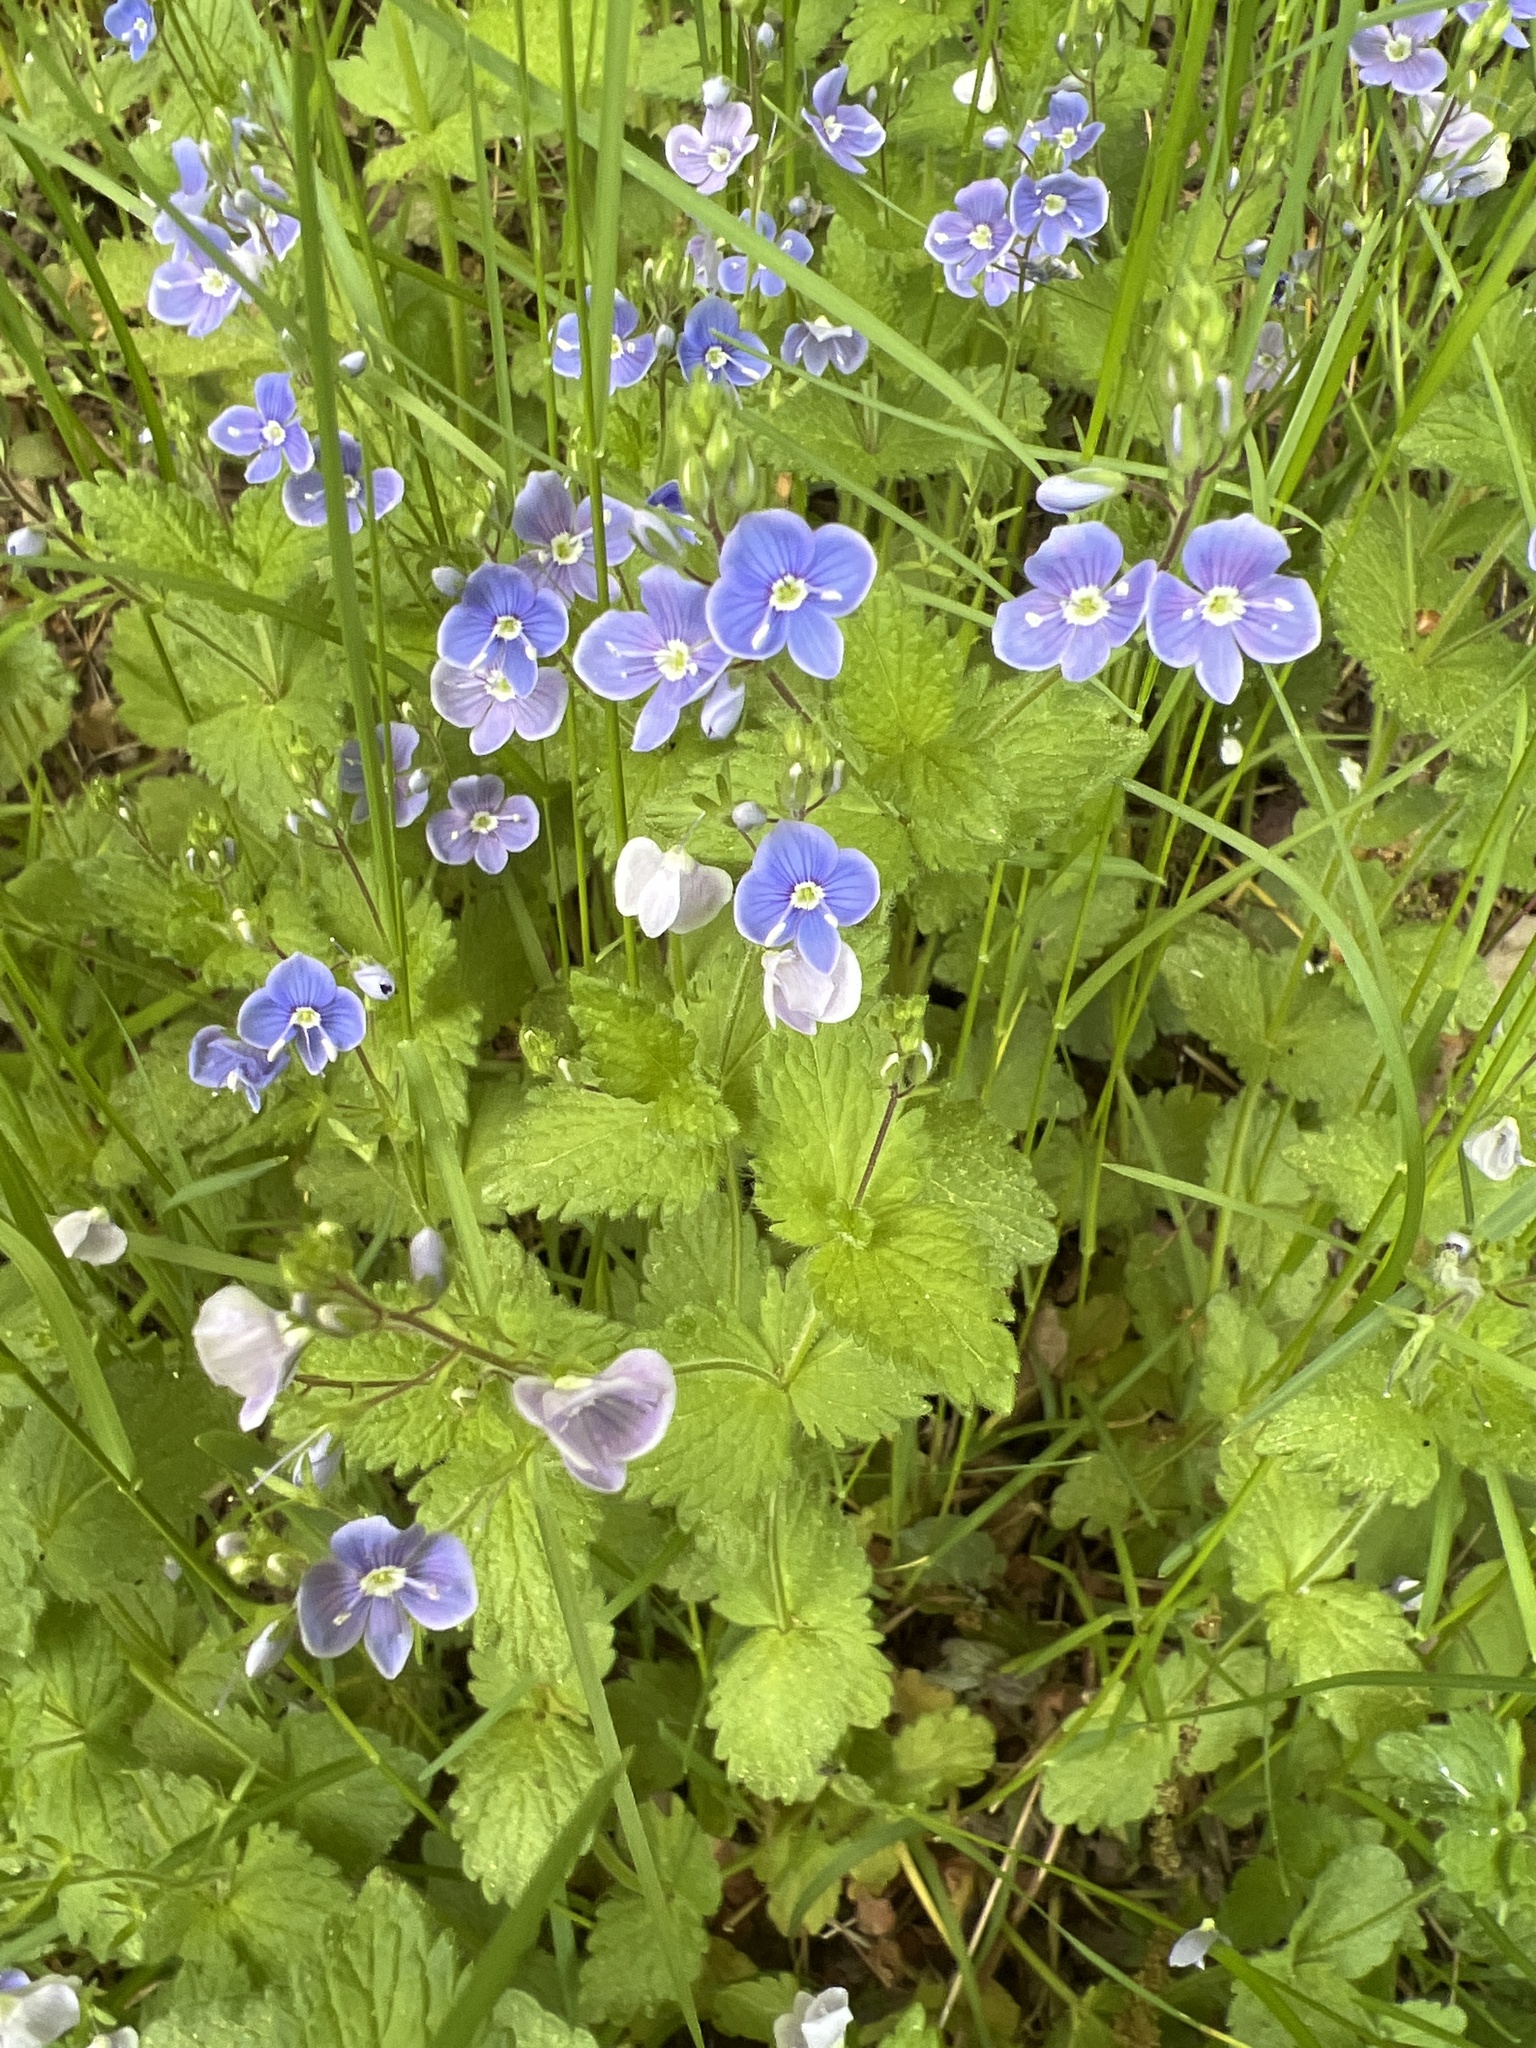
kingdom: Plantae
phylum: Tracheophyta
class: Magnoliopsida
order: Lamiales
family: Plantaginaceae
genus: Veronica
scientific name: Veronica chamaedrys
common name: Germander speedwell
